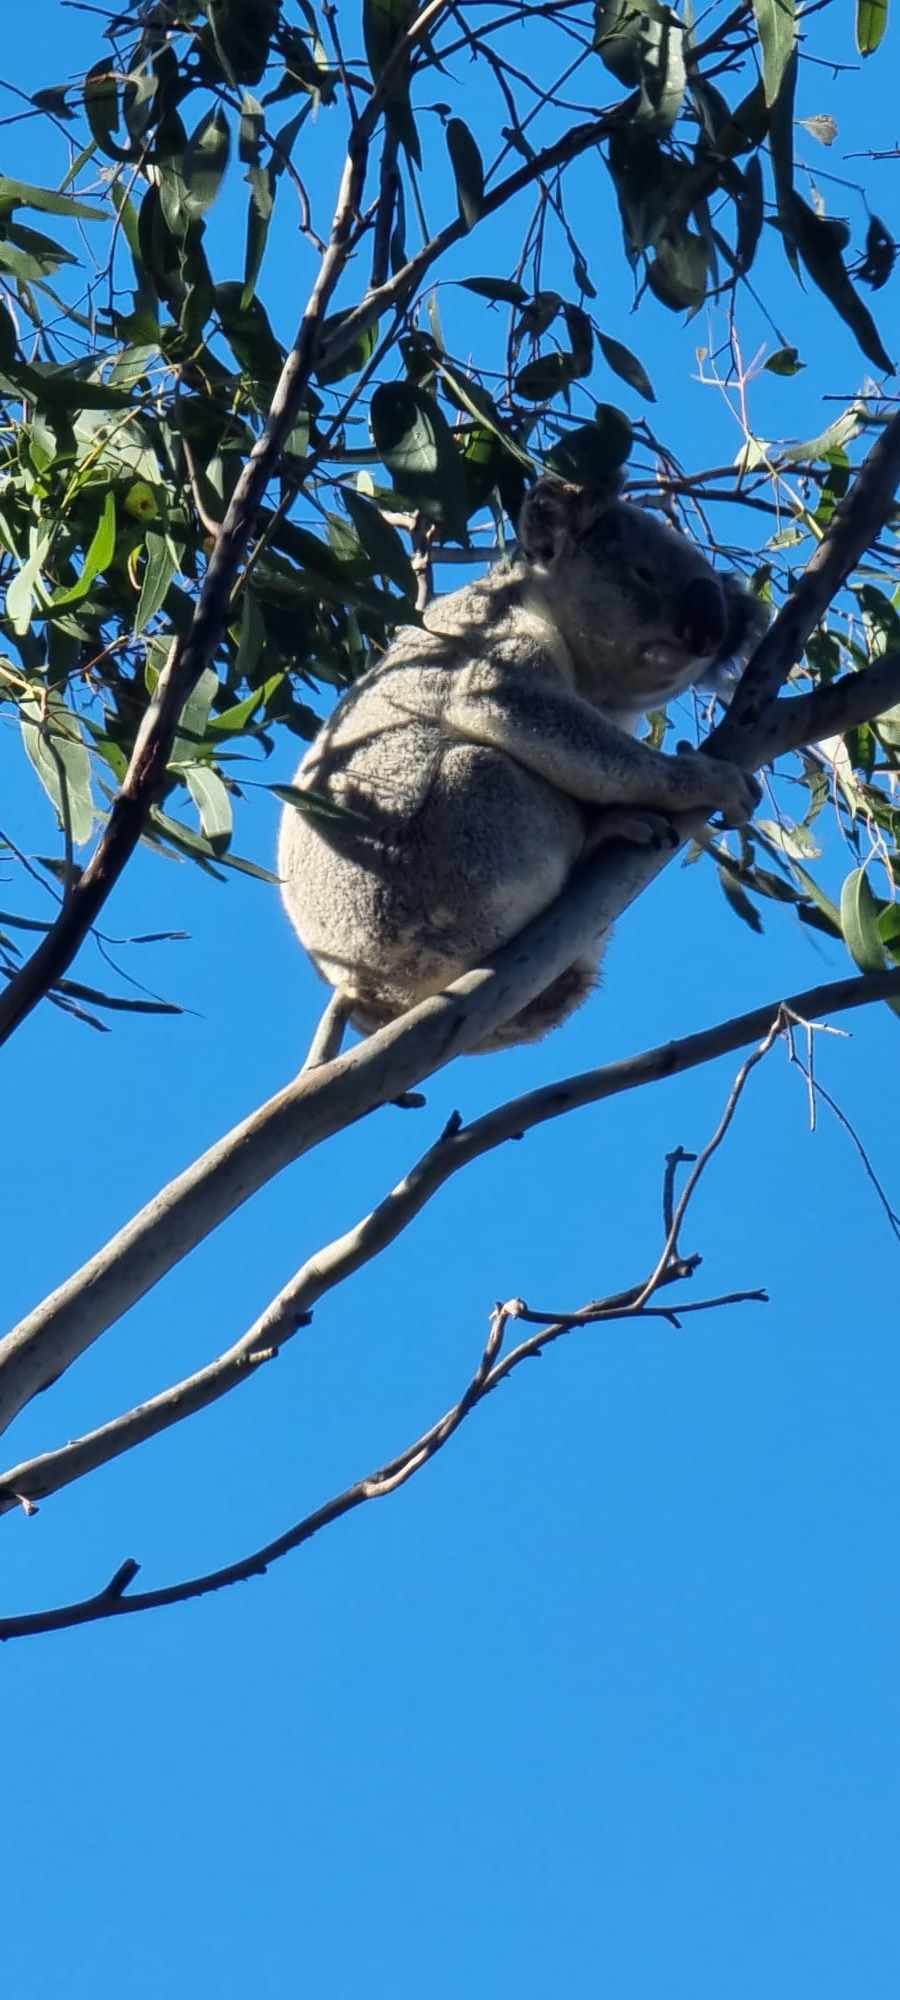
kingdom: Animalia
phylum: Chordata
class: Mammalia
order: Diprotodontia
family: Phascolarctidae
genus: Phascolarctos
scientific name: Phascolarctos cinereus
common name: Koala
